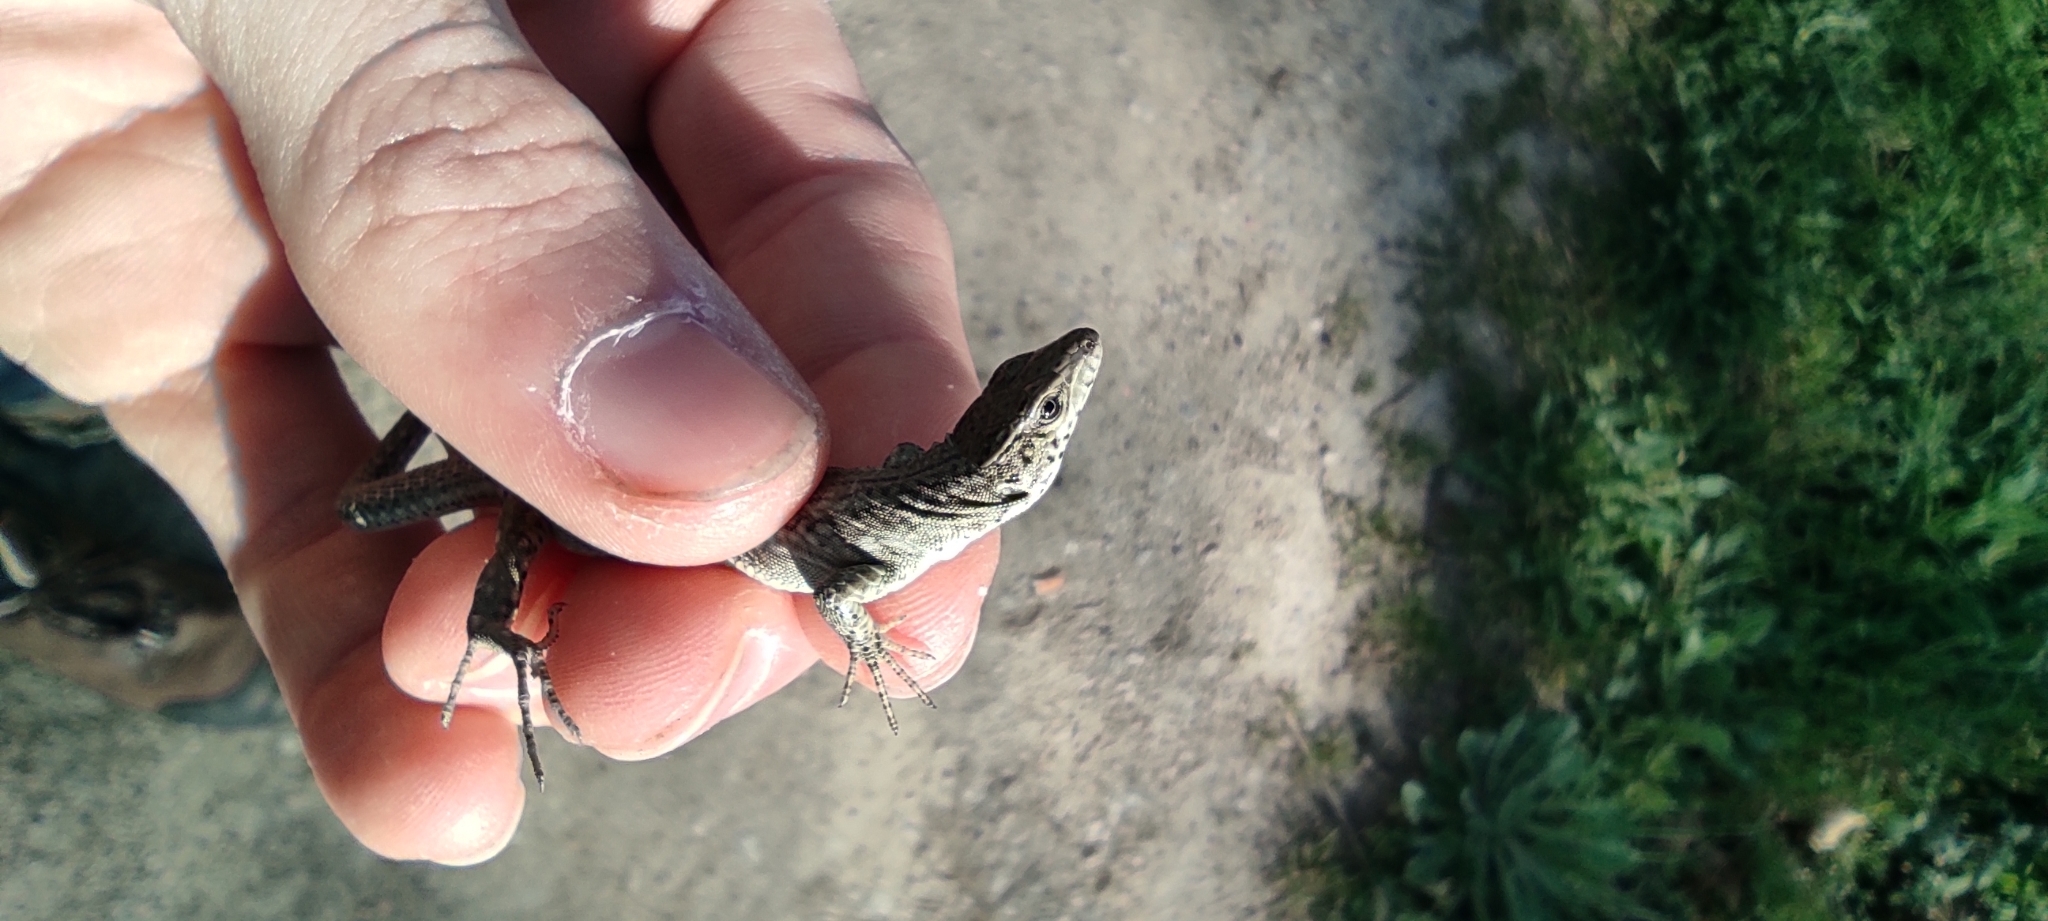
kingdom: Animalia
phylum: Chordata
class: Squamata
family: Lacertidae
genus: Podarcis
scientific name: Podarcis liolepis
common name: Catalonian wall lizard
